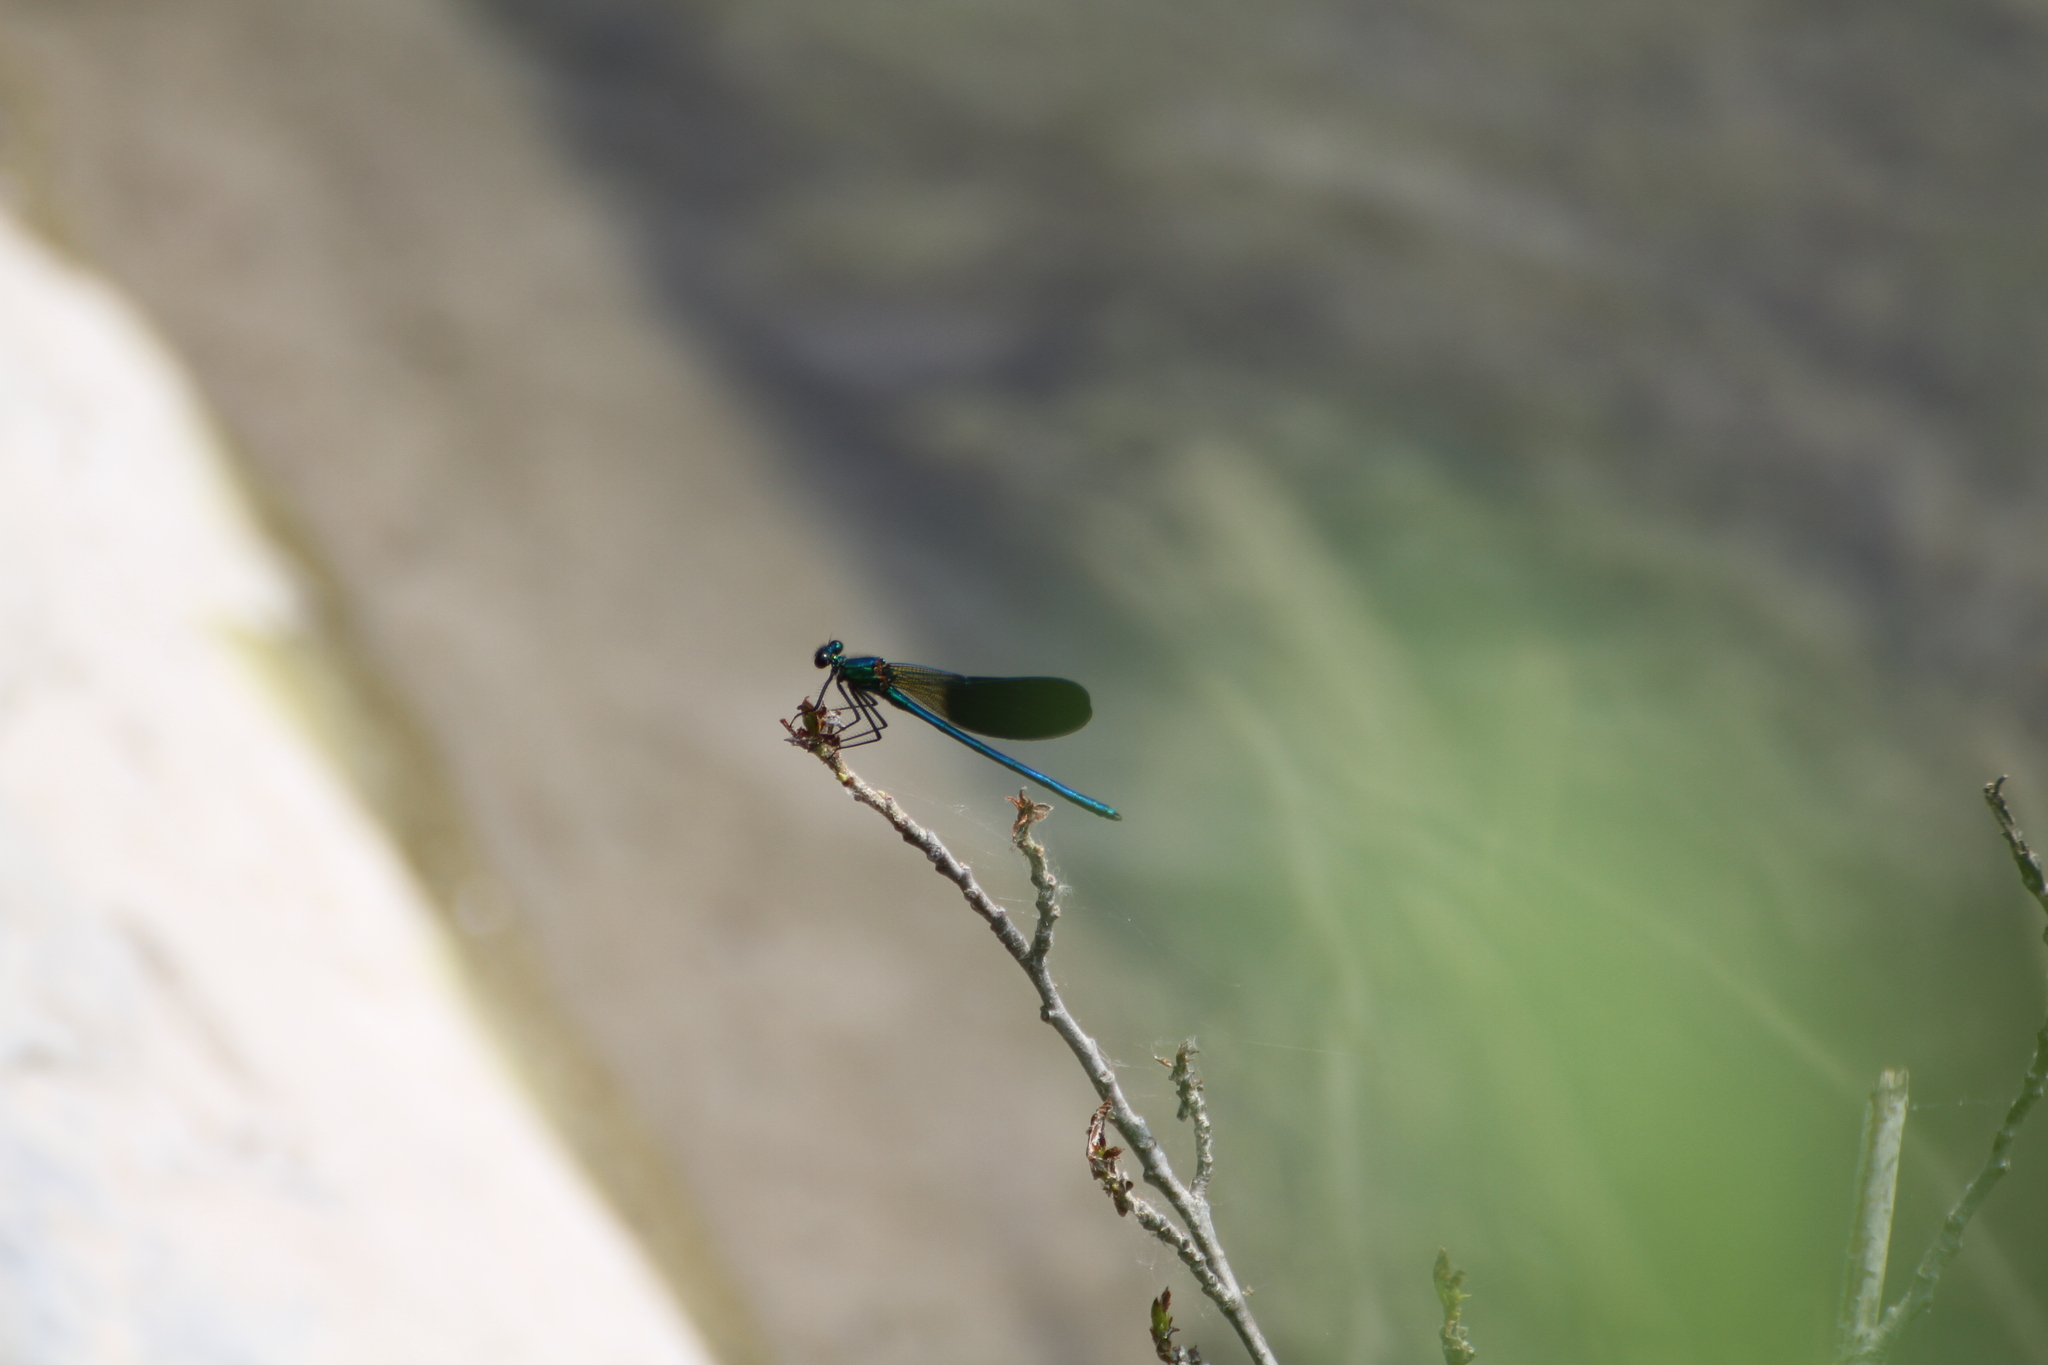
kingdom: Animalia
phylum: Arthropoda
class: Insecta
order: Odonata
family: Calopterygidae
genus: Calopteryx
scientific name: Calopteryx xanthostoma
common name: Western demoiselle
